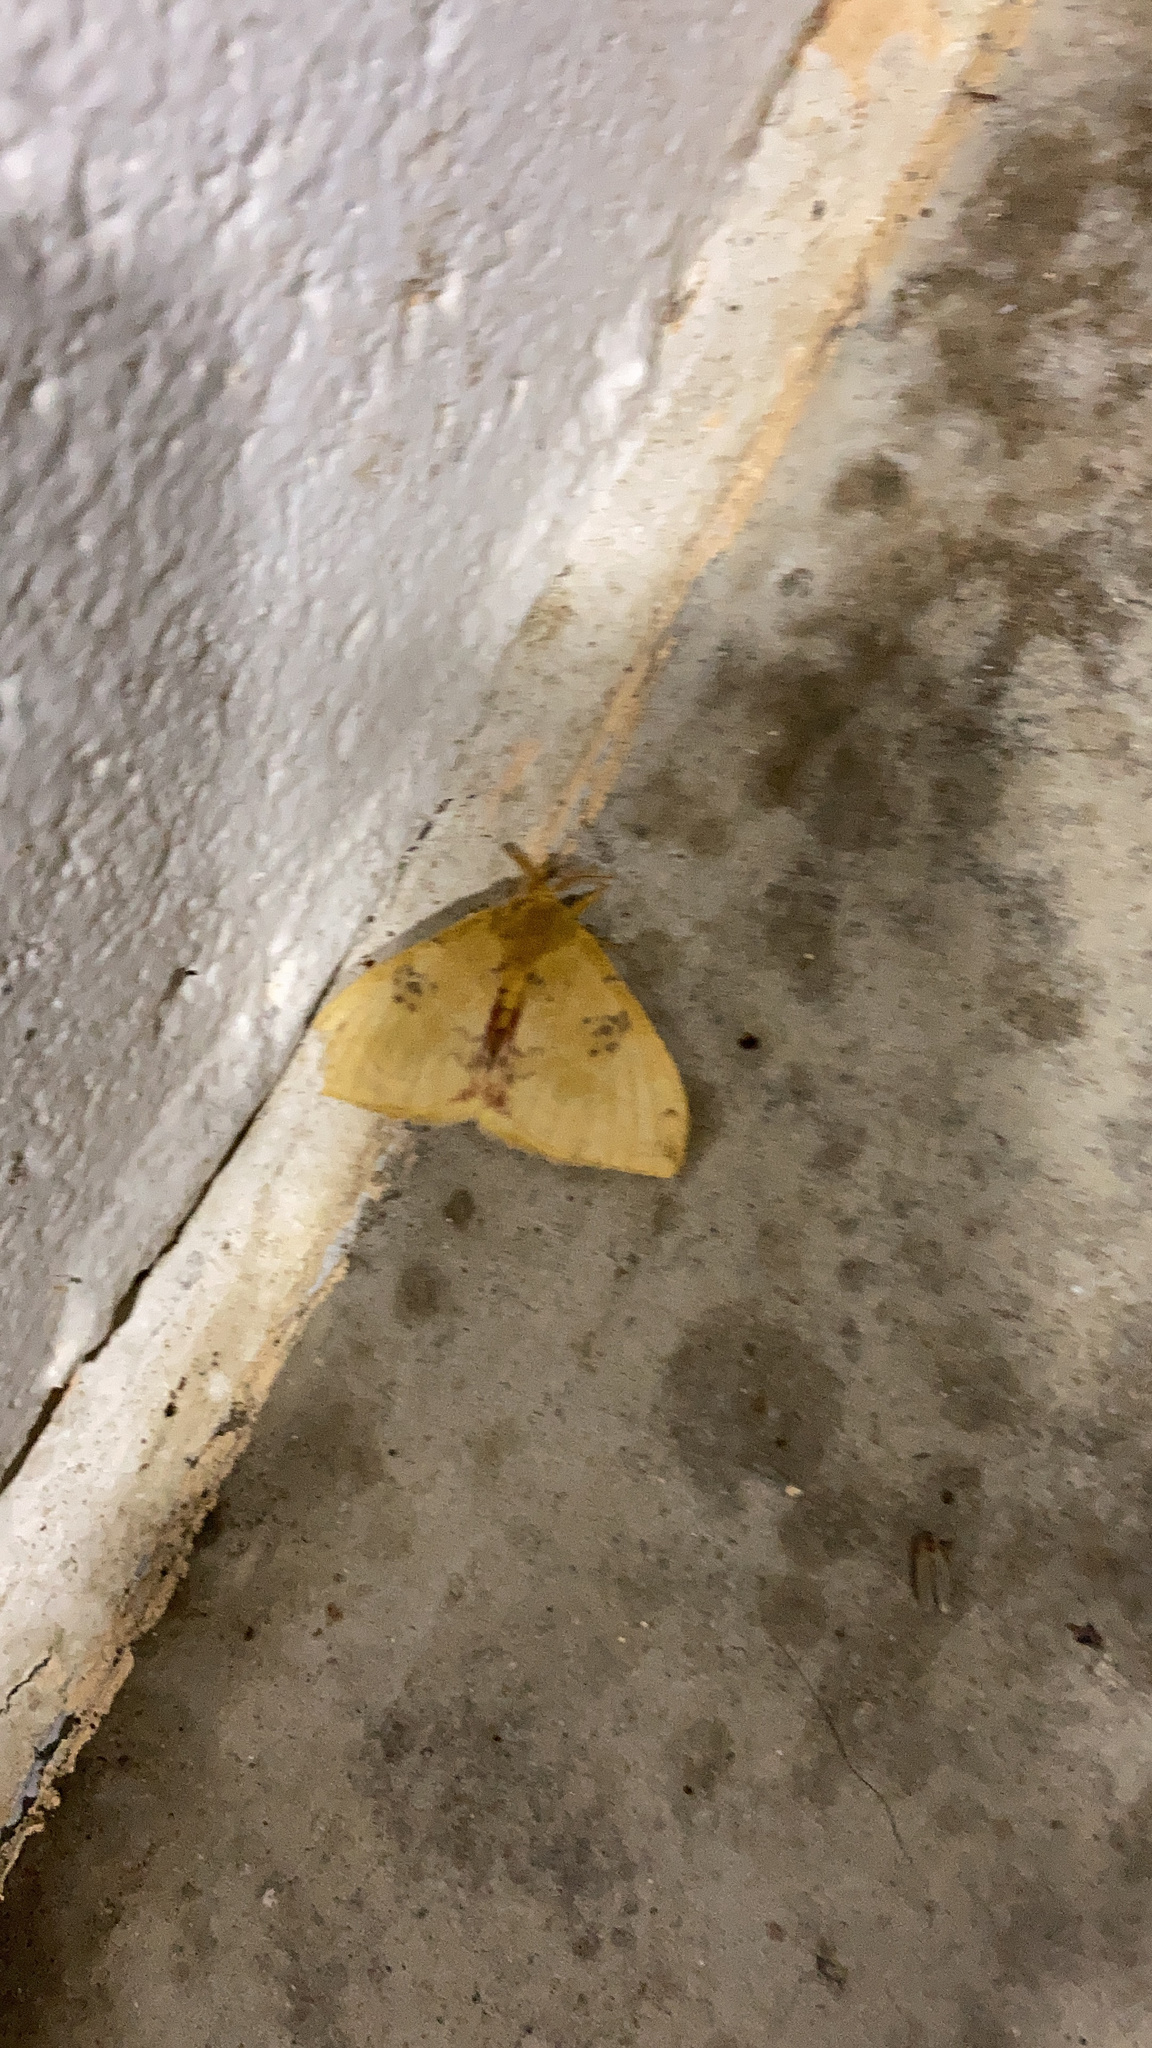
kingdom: Animalia
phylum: Arthropoda
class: Insecta
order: Lepidoptera
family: Saturniidae
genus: Automeris
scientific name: Automeris io
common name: Io moth
